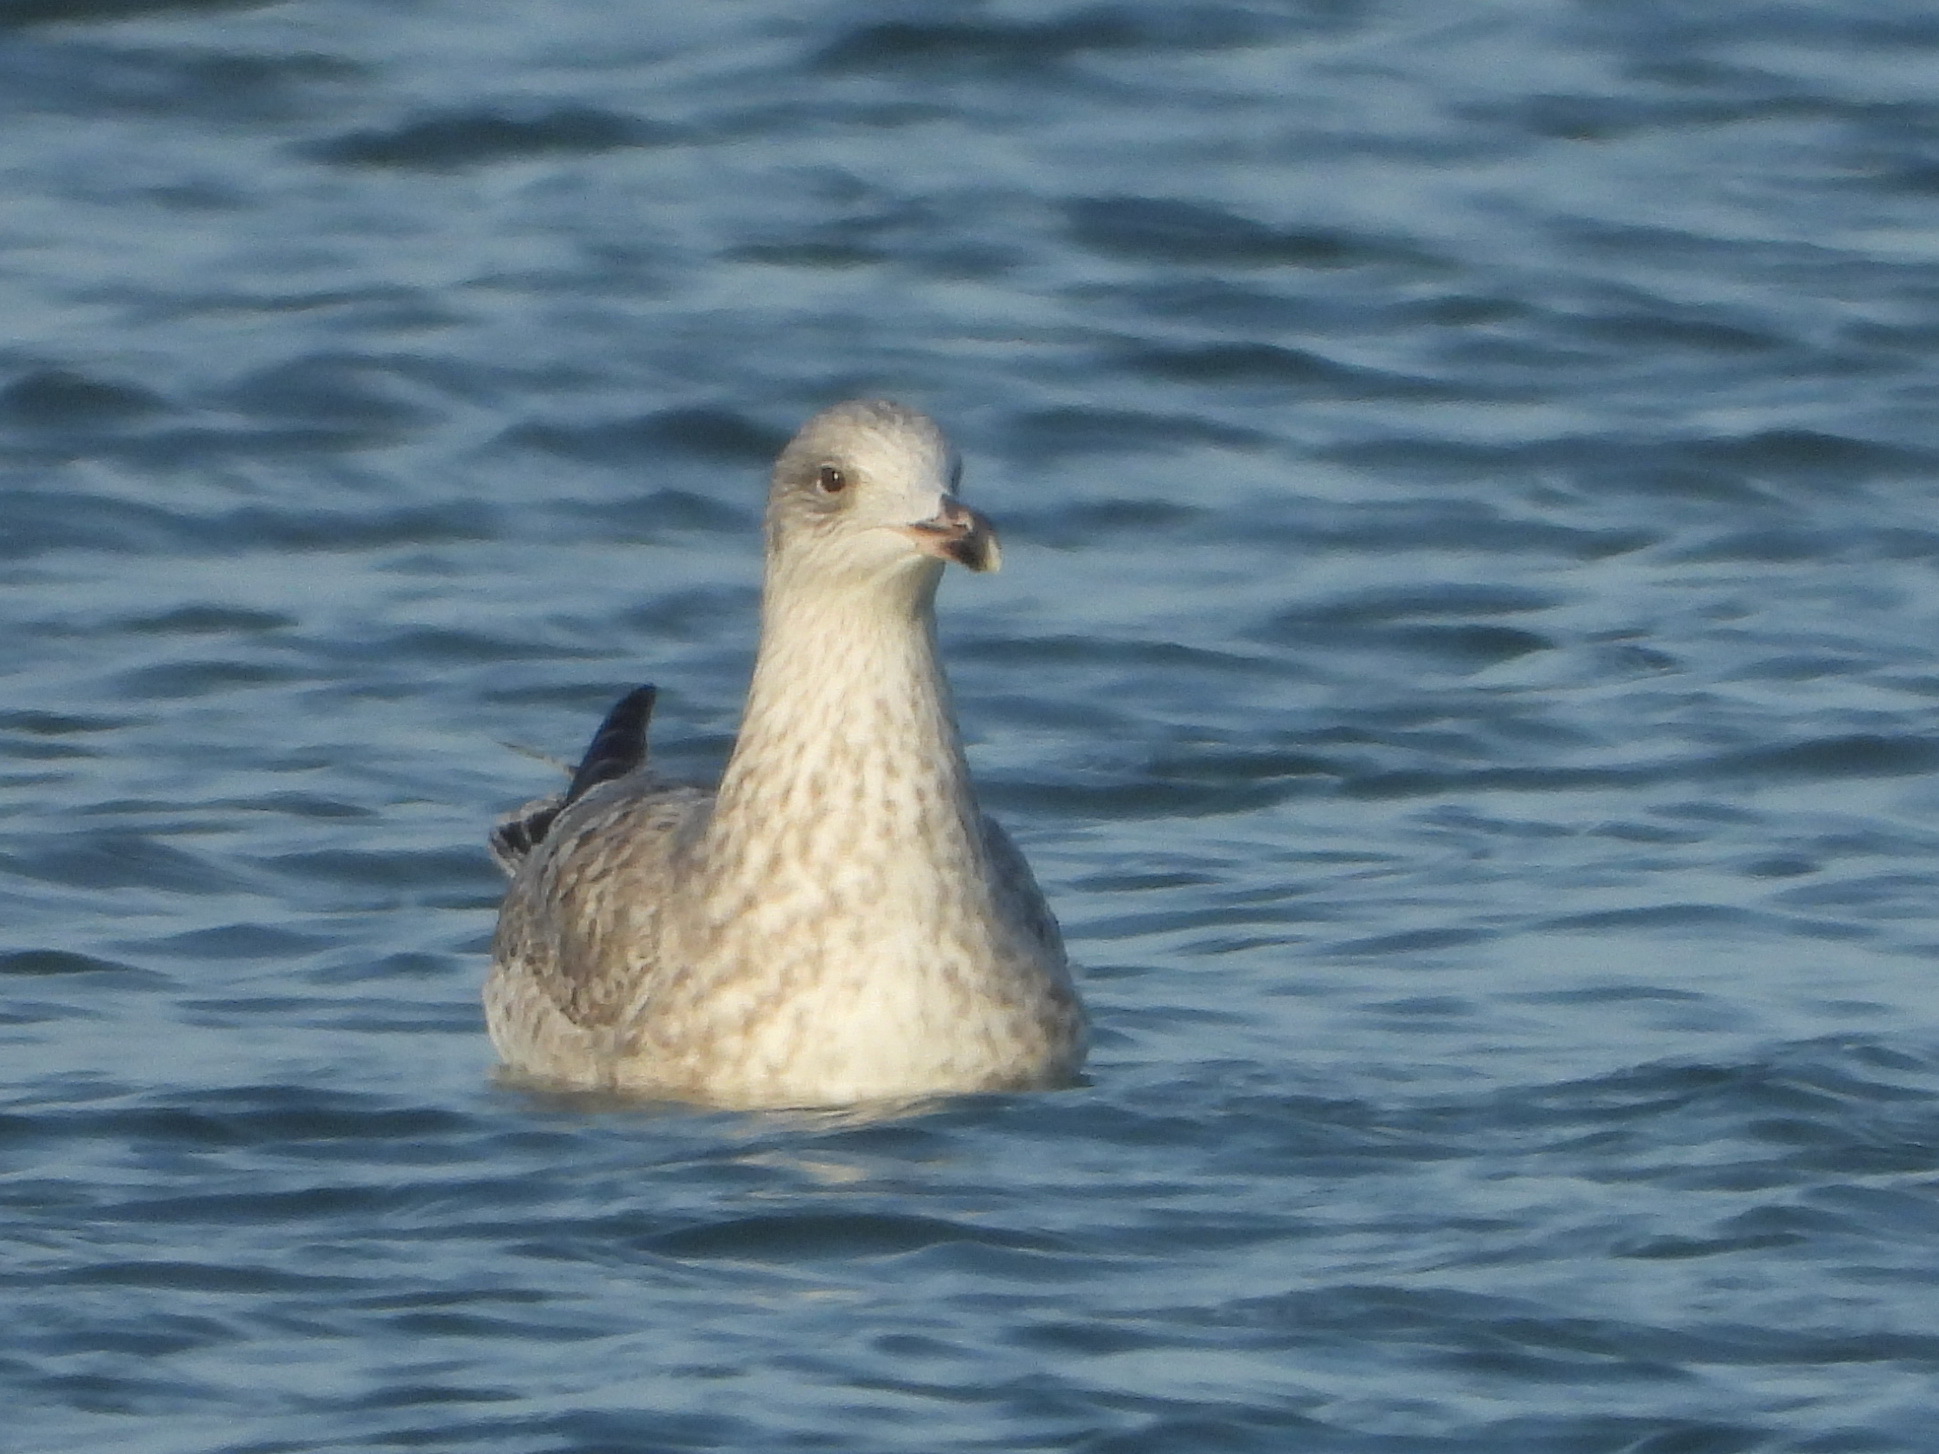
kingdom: Animalia
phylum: Chordata
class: Aves
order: Charadriiformes
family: Laridae
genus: Larus
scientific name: Larus argentatus
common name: Herring gull
